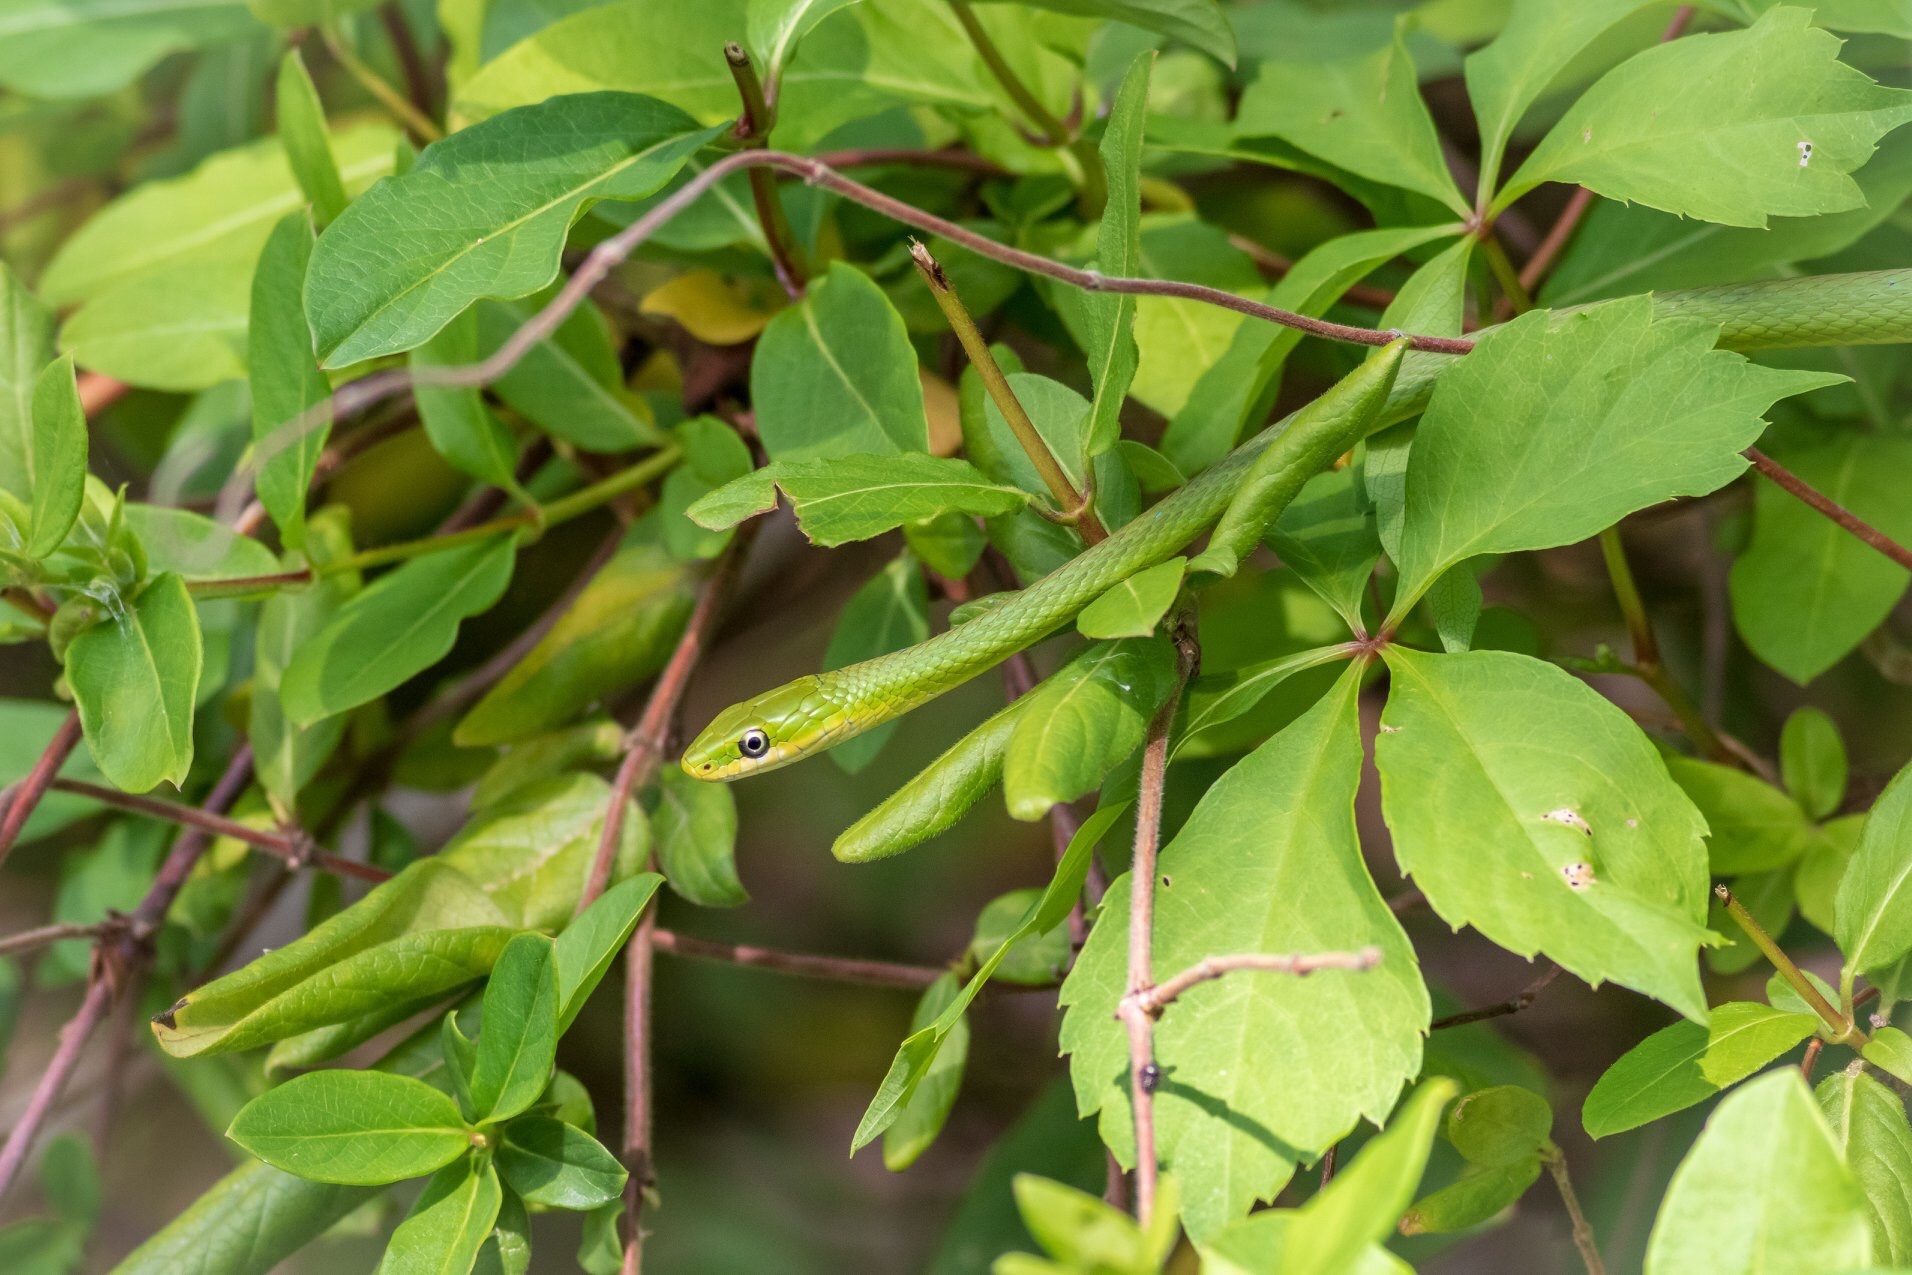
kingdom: Animalia
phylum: Chordata
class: Squamata
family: Colubridae
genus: Opheodrys
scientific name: Opheodrys aestivus
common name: Rough greensnake
